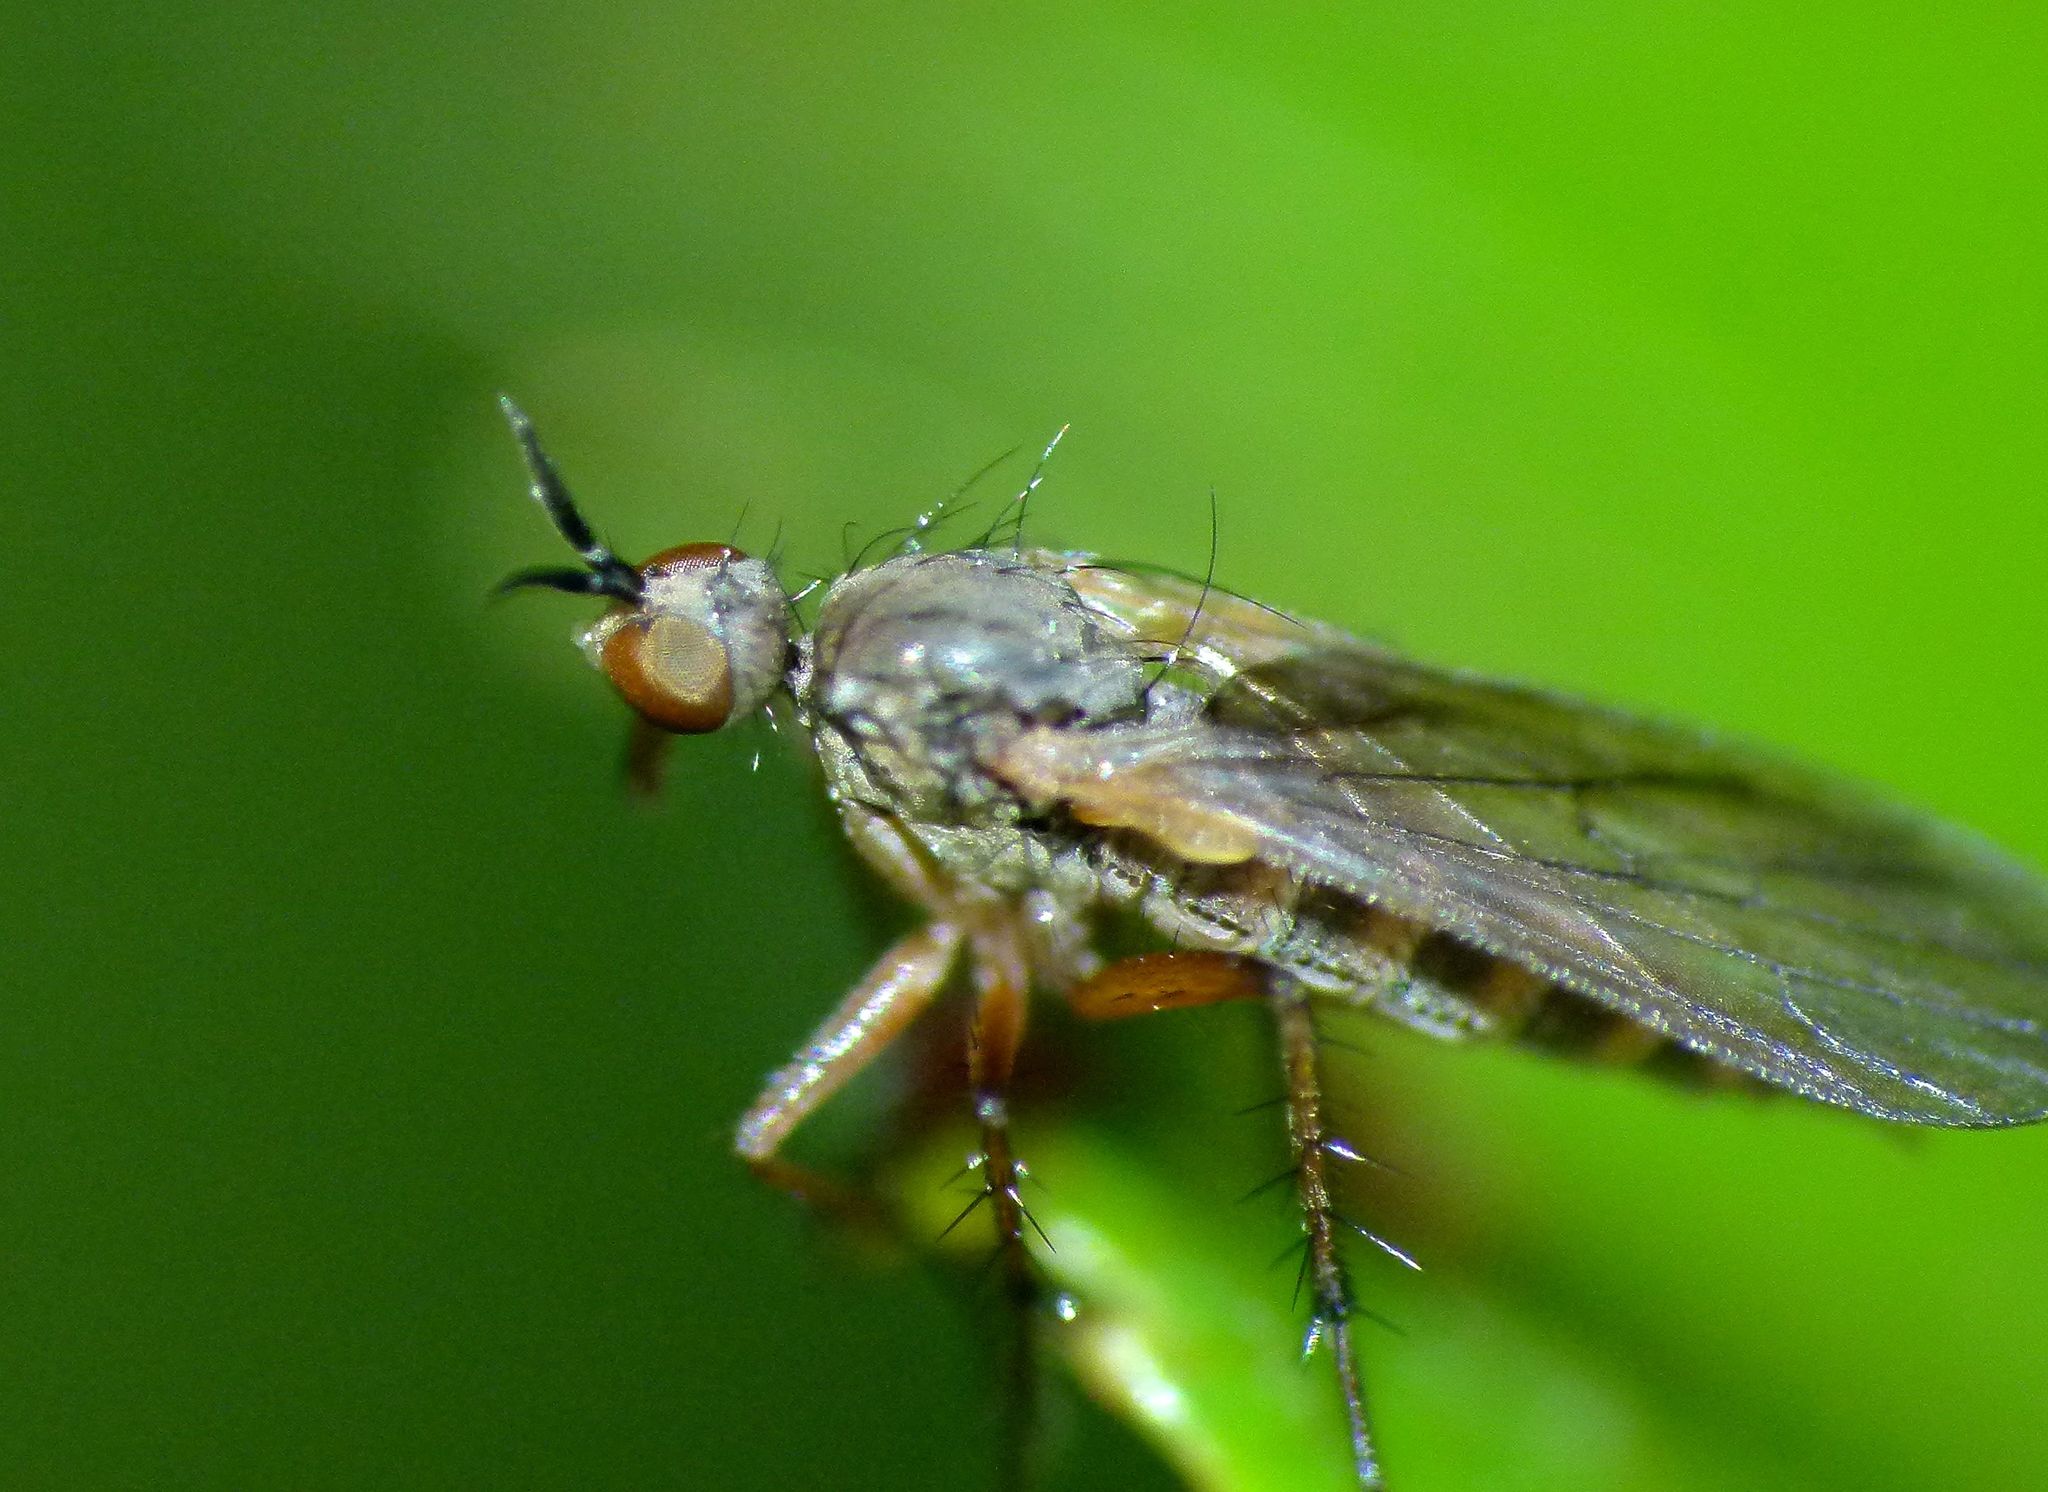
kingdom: Animalia
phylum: Arthropoda
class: Insecta
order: Diptera
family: Empididae
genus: Empidadelpha
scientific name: Empidadelpha propria
